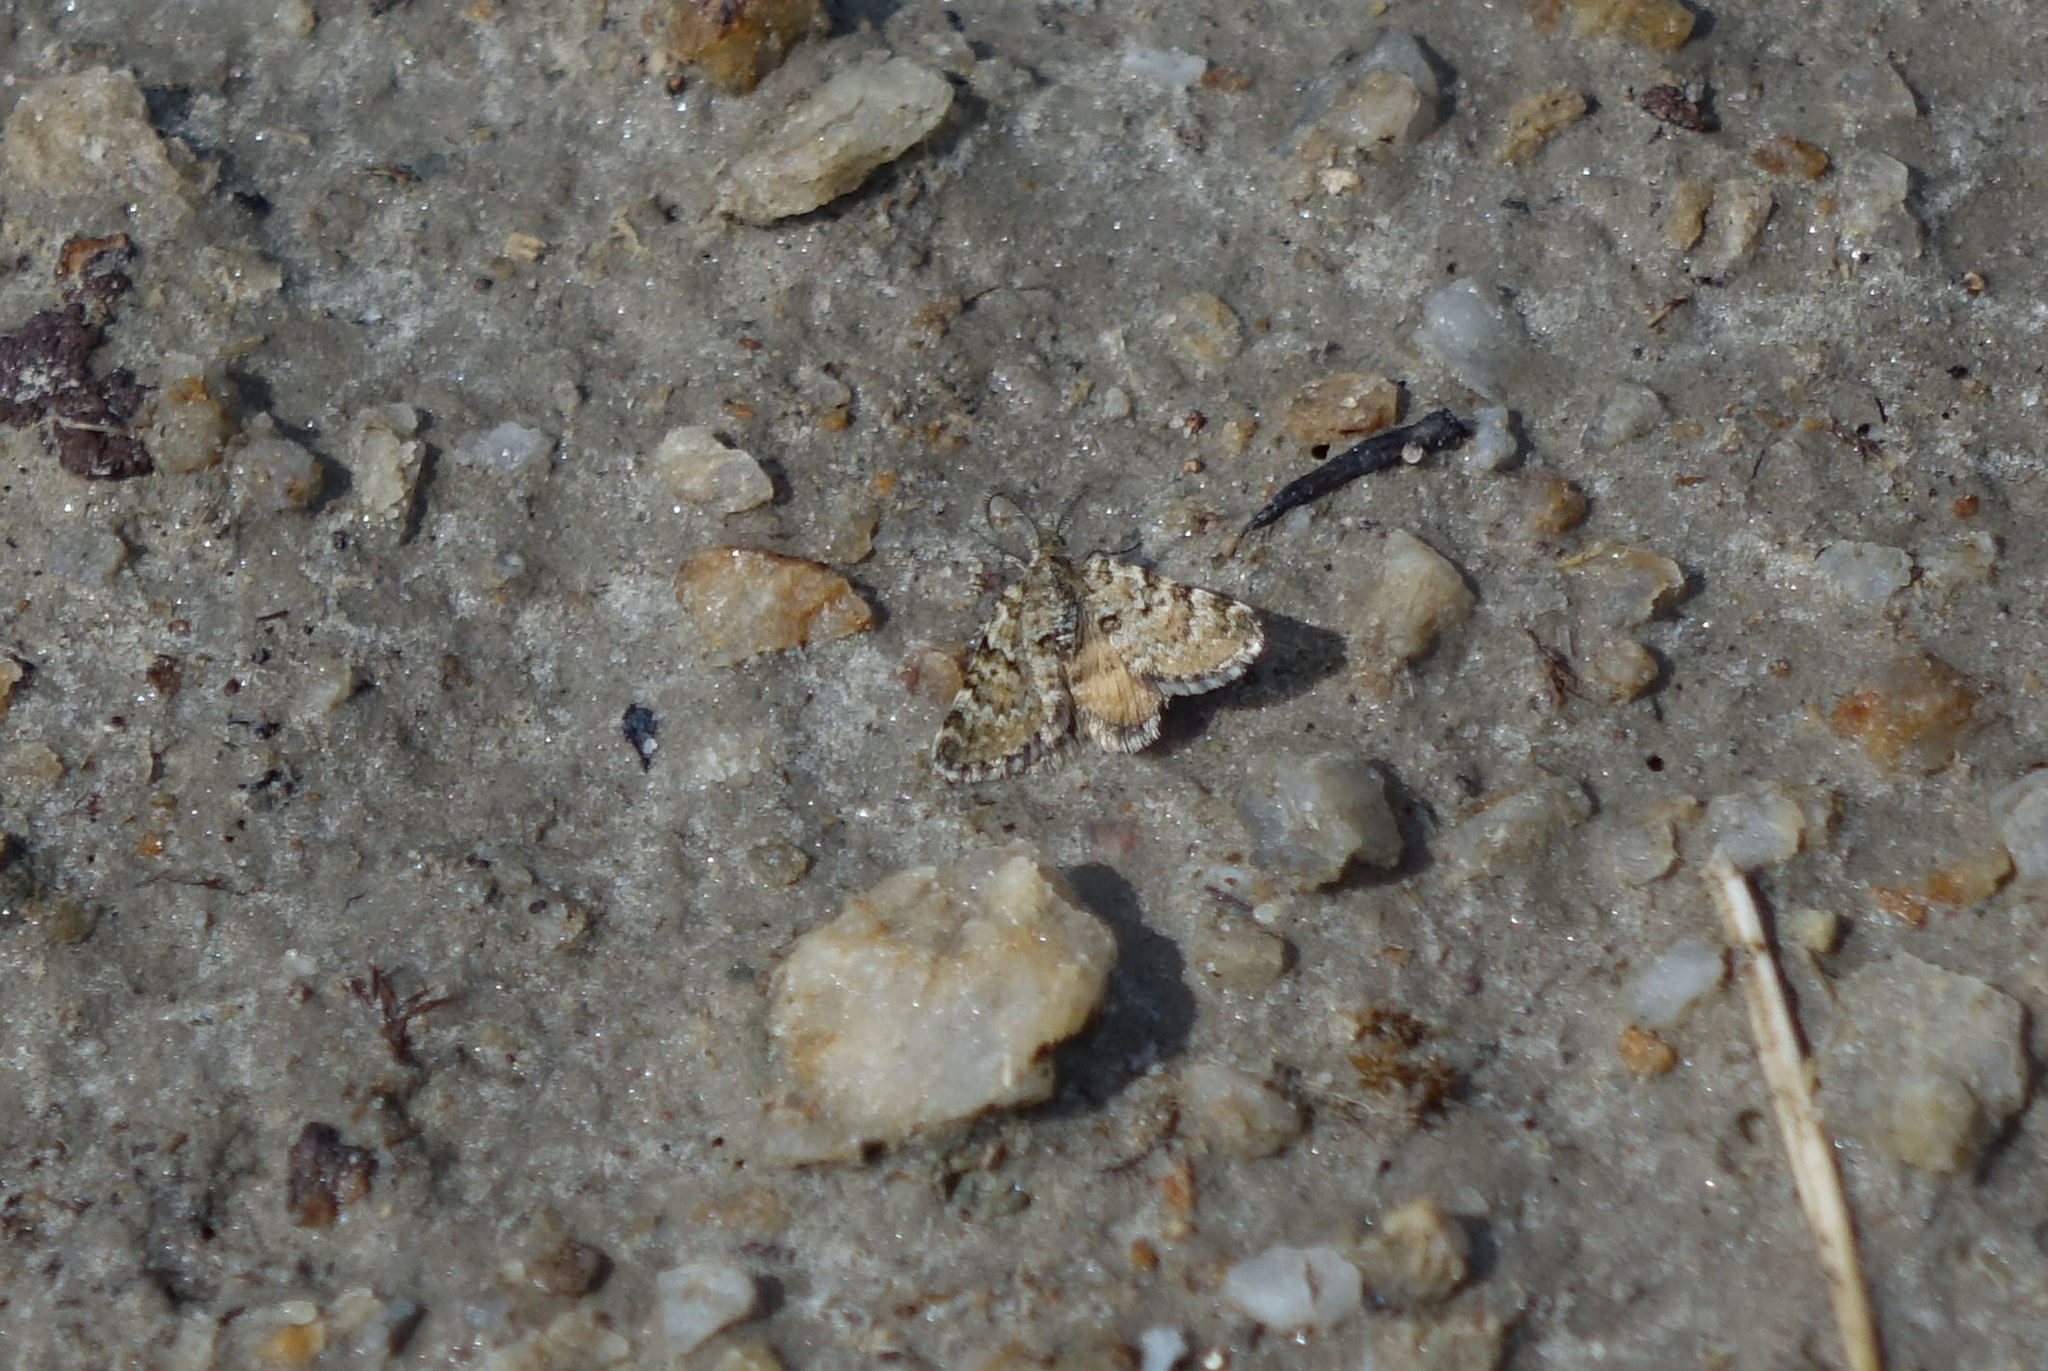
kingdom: Animalia
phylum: Arthropoda
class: Insecta
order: Lepidoptera
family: Geometridae
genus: Paranotoreas
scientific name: Paranotoreas fulva
